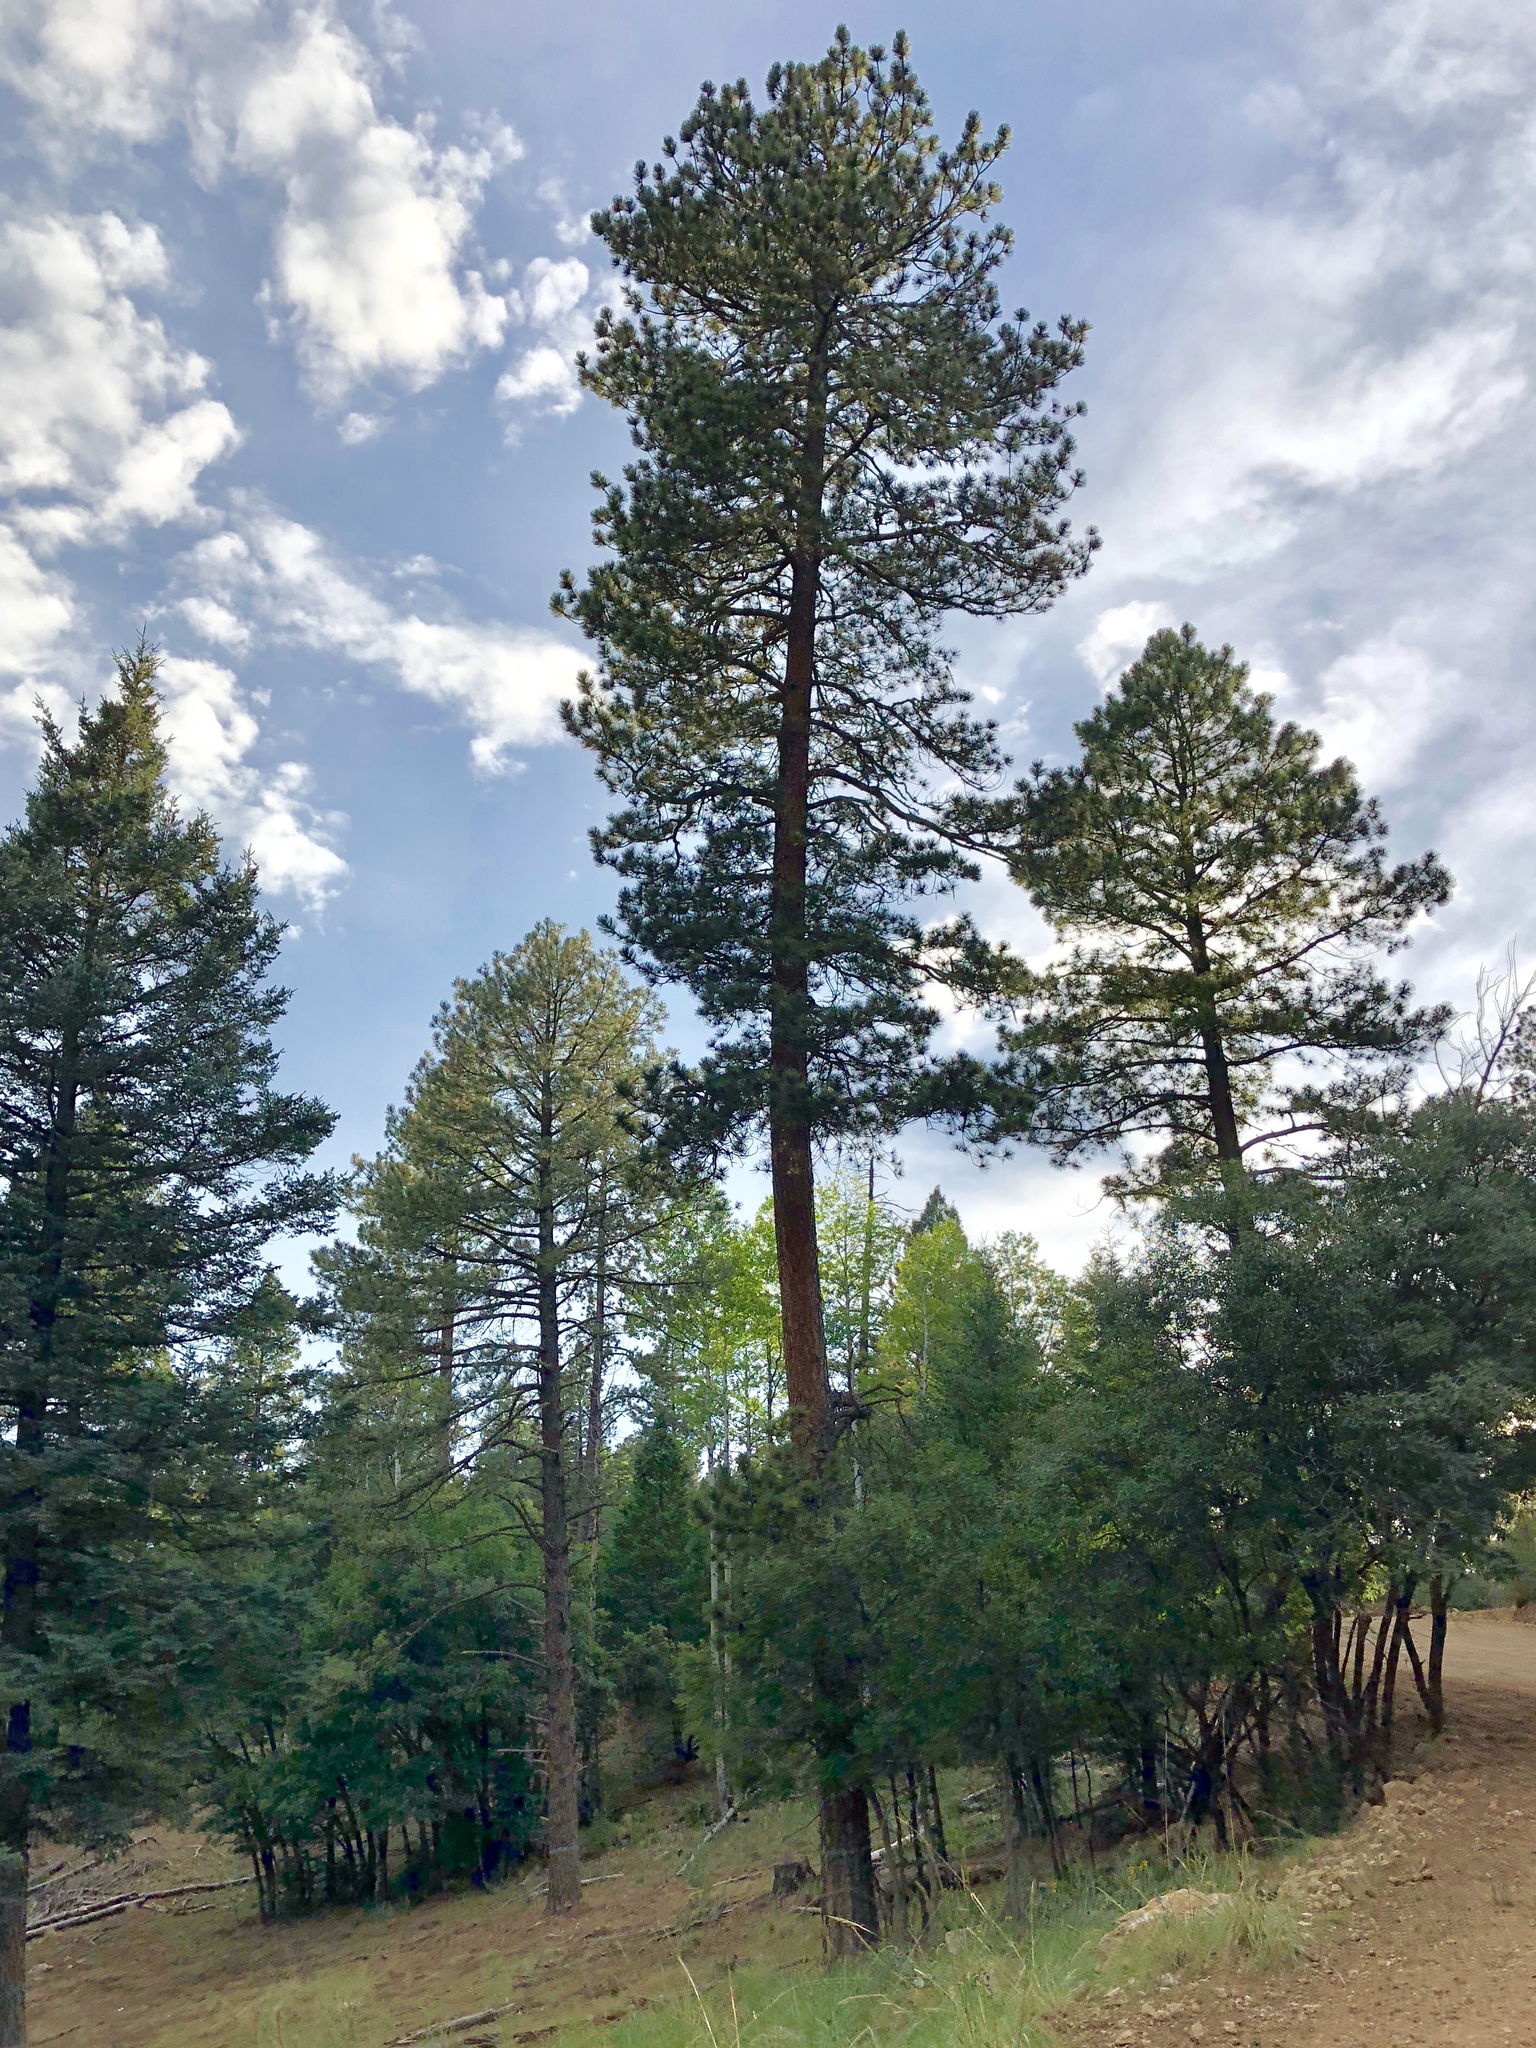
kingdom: Plantae
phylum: Tracheophyta
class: Pinopsida
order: Pinales
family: Pinaceae
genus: Pinus
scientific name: Pinus ponderosa
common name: Western yellow-pine
